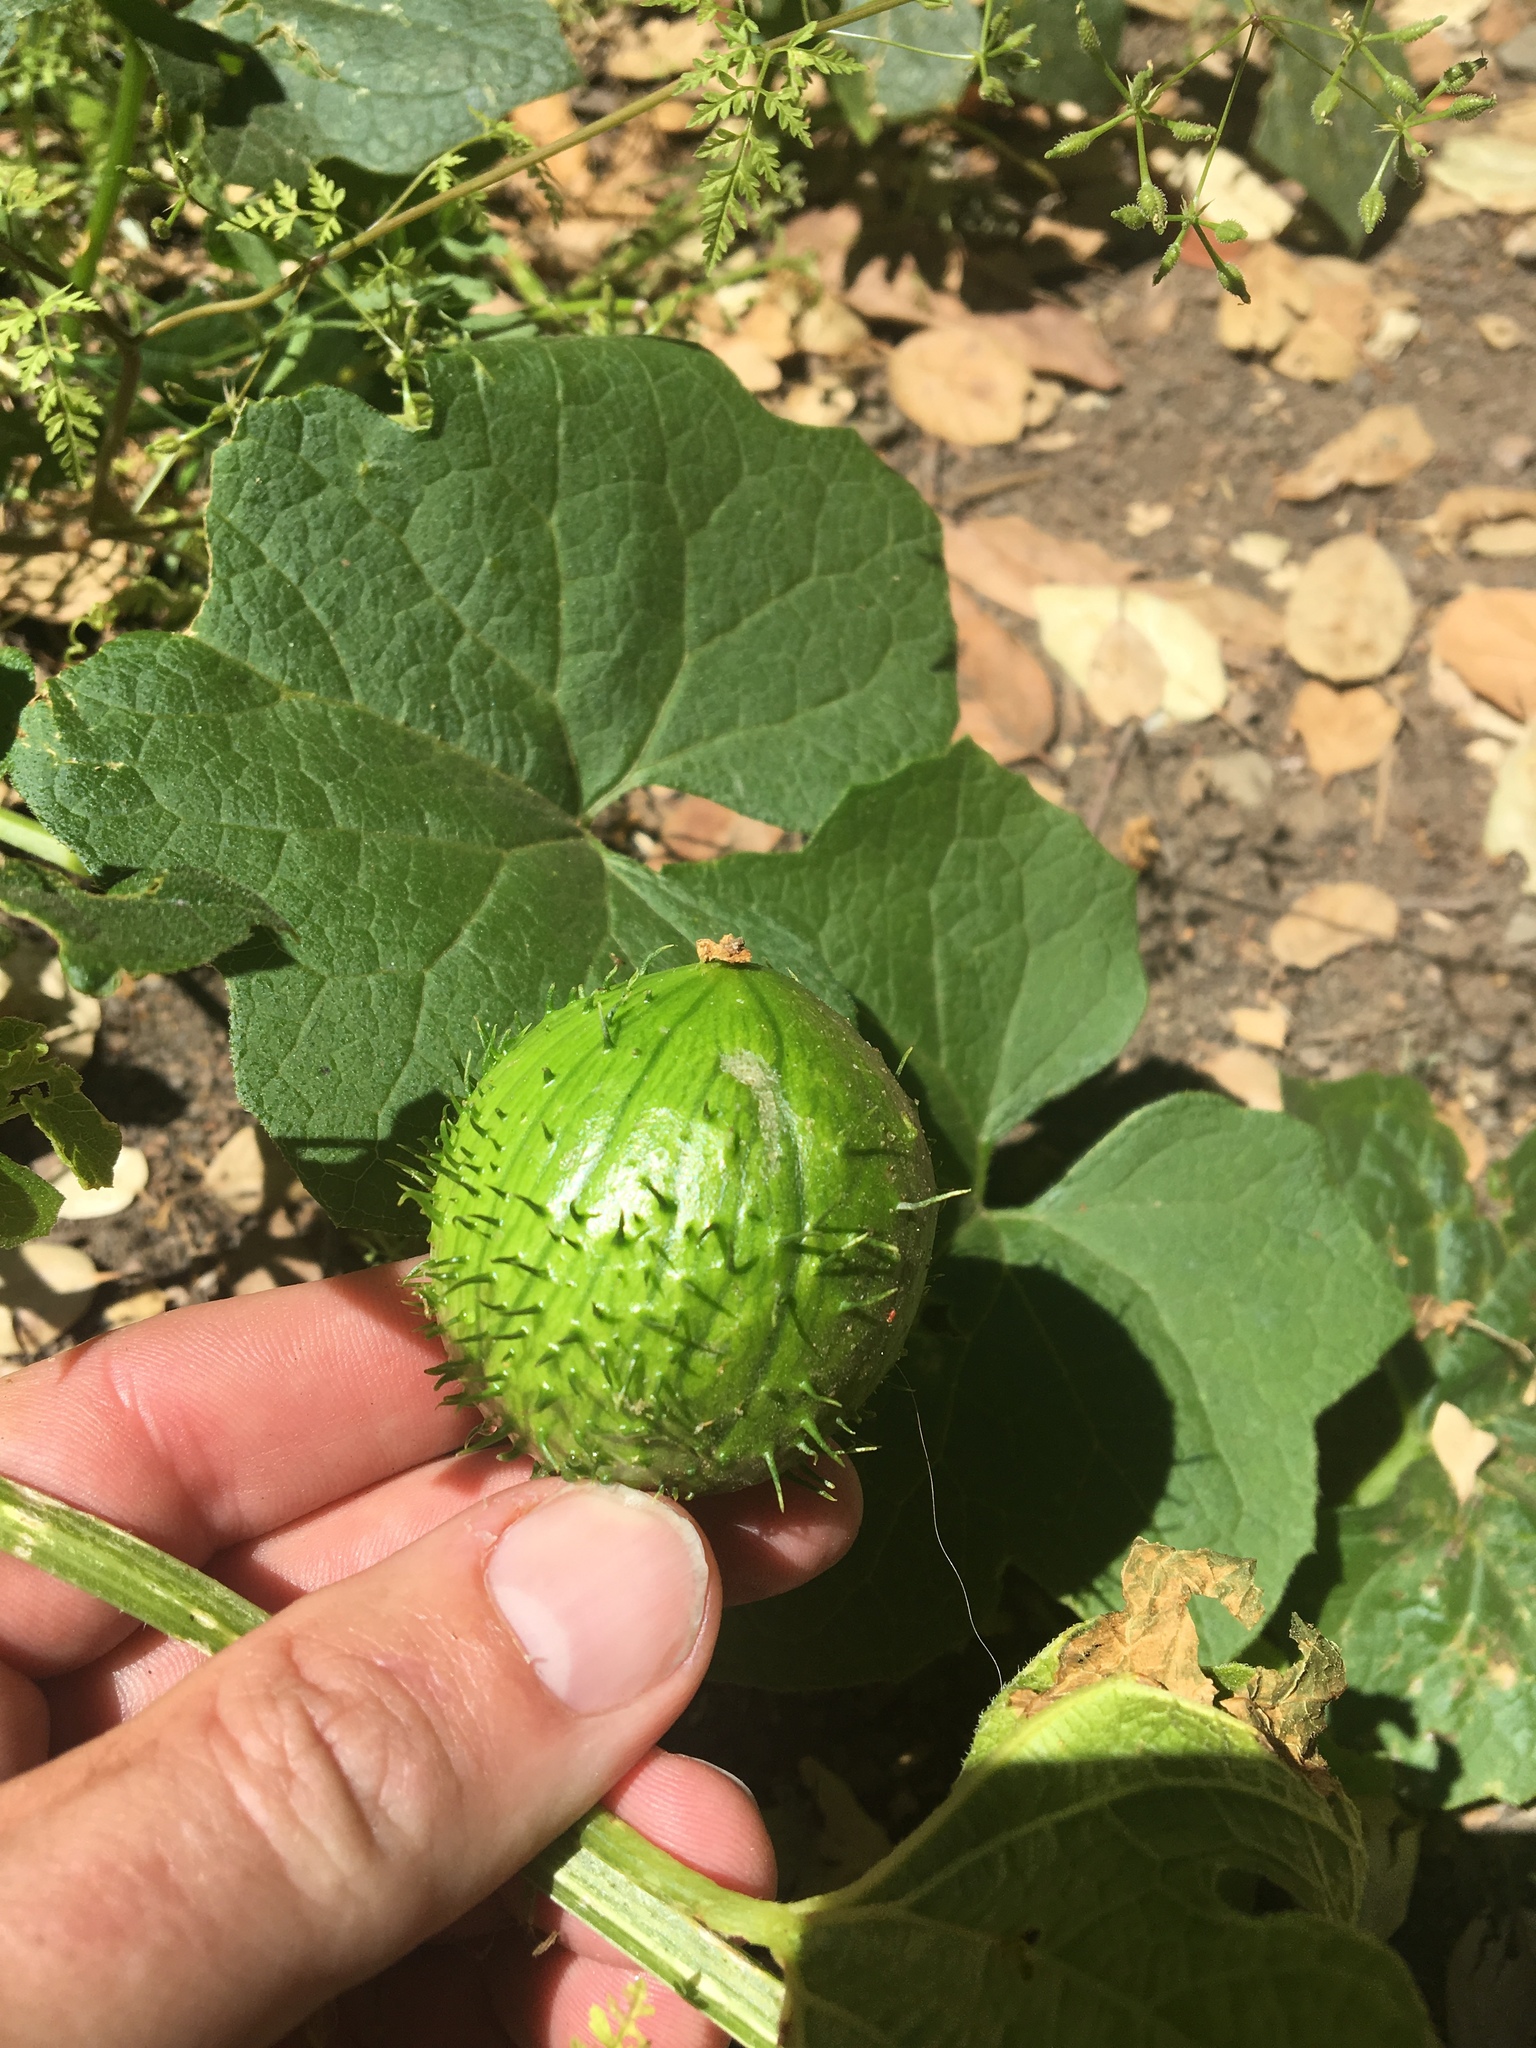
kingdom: Plantae
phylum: Tracheophyta
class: Magnoliopsida
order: Cucurbitales
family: Cucurbitaceae
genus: Marah
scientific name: Marah oregana
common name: Coastal manroot
